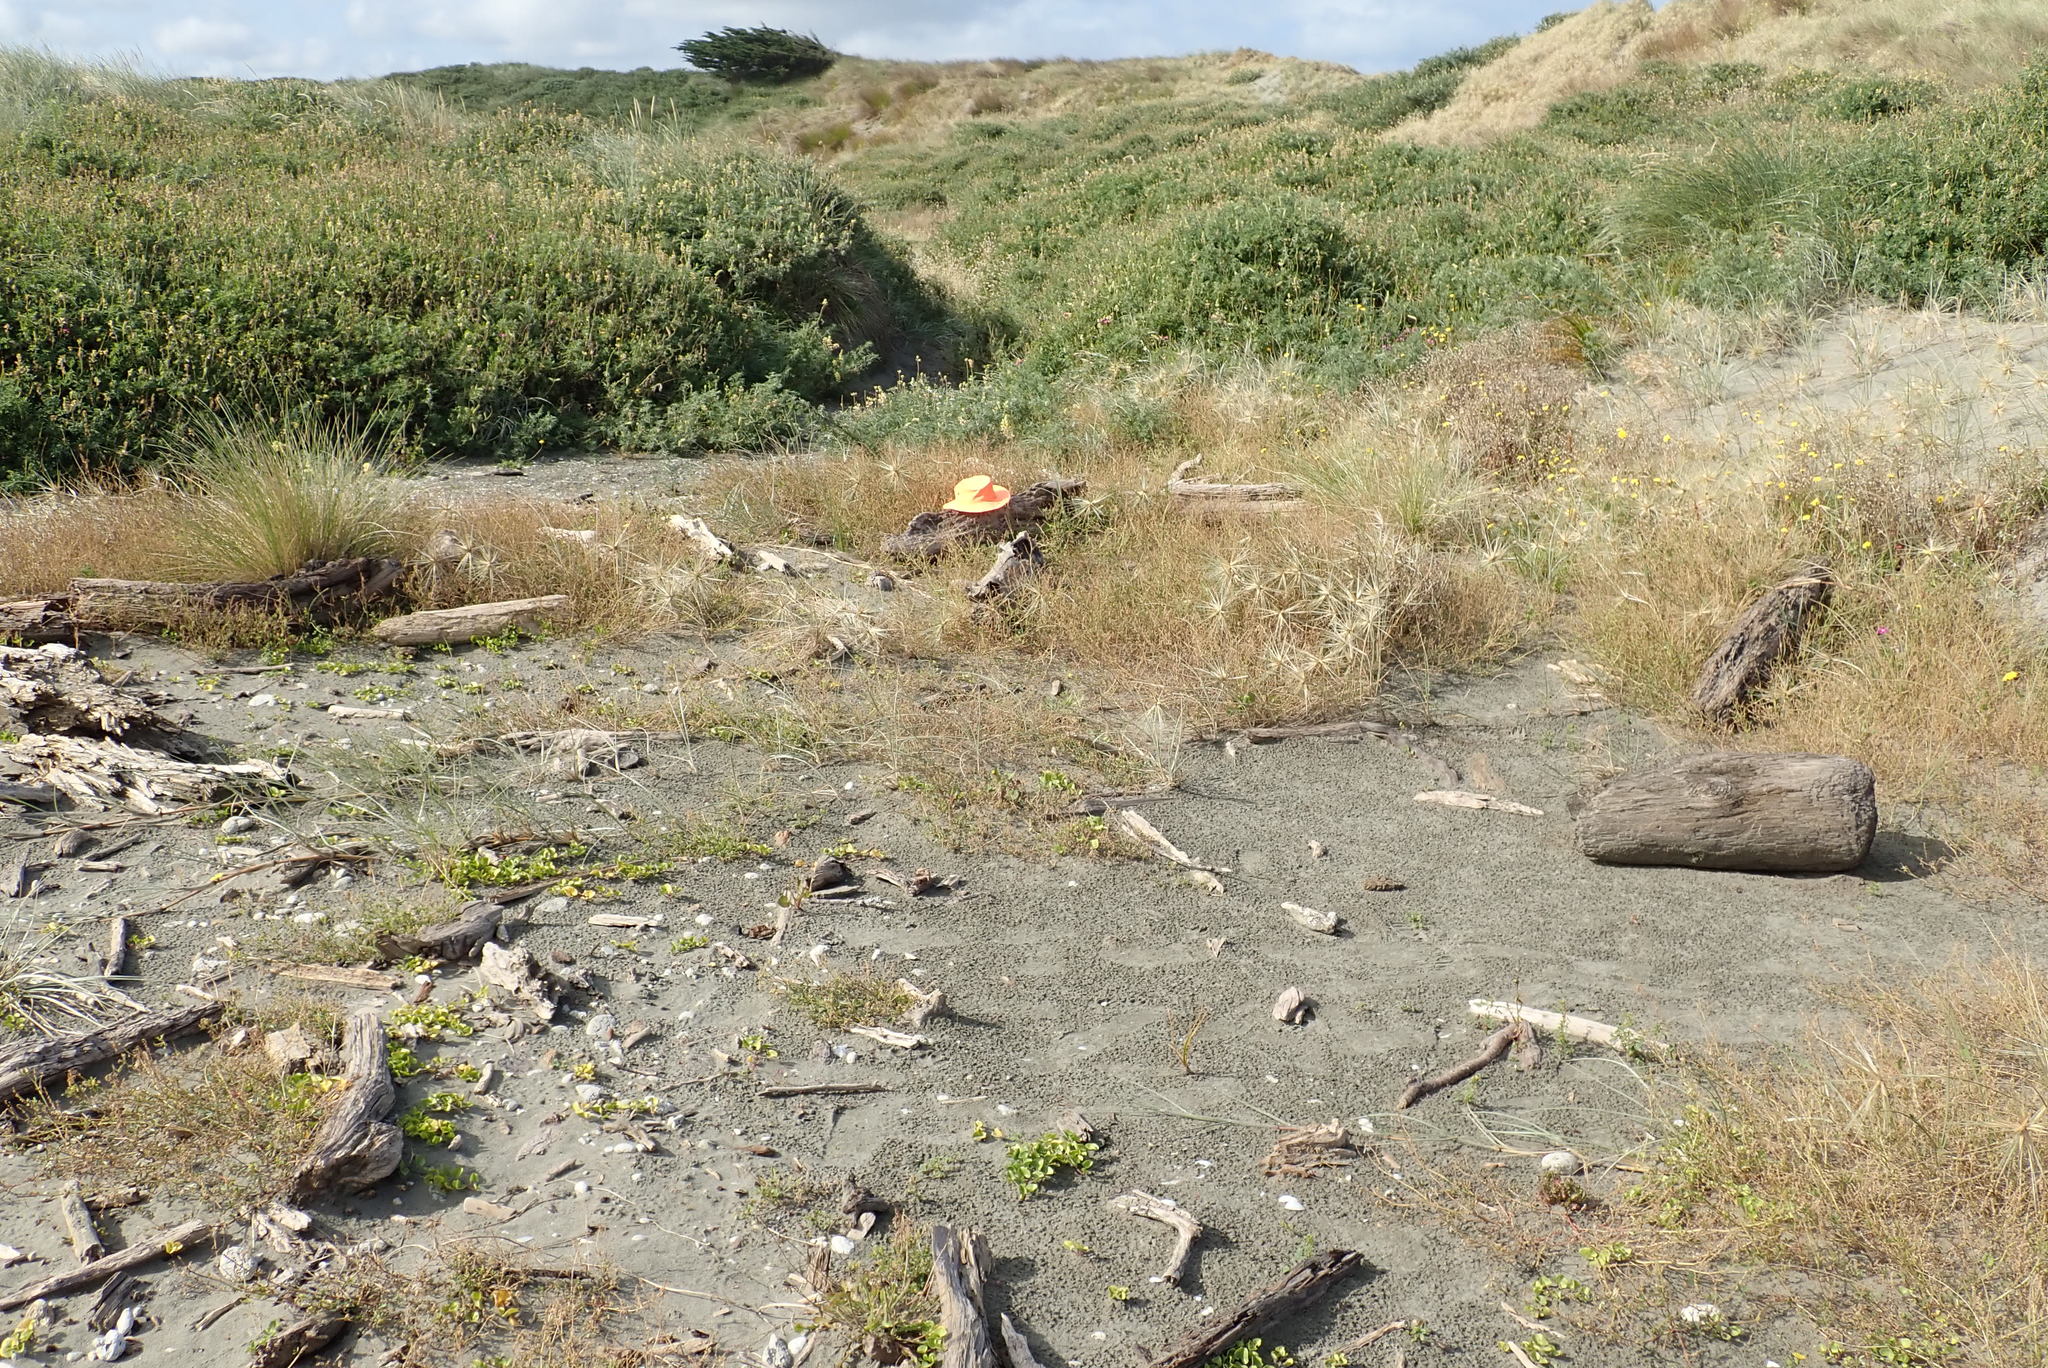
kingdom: Animalia
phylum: Arthropoda
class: Insecta
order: Dermaptera
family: Anisolabididae
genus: Anisolabis
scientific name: Anisolabis littorea
